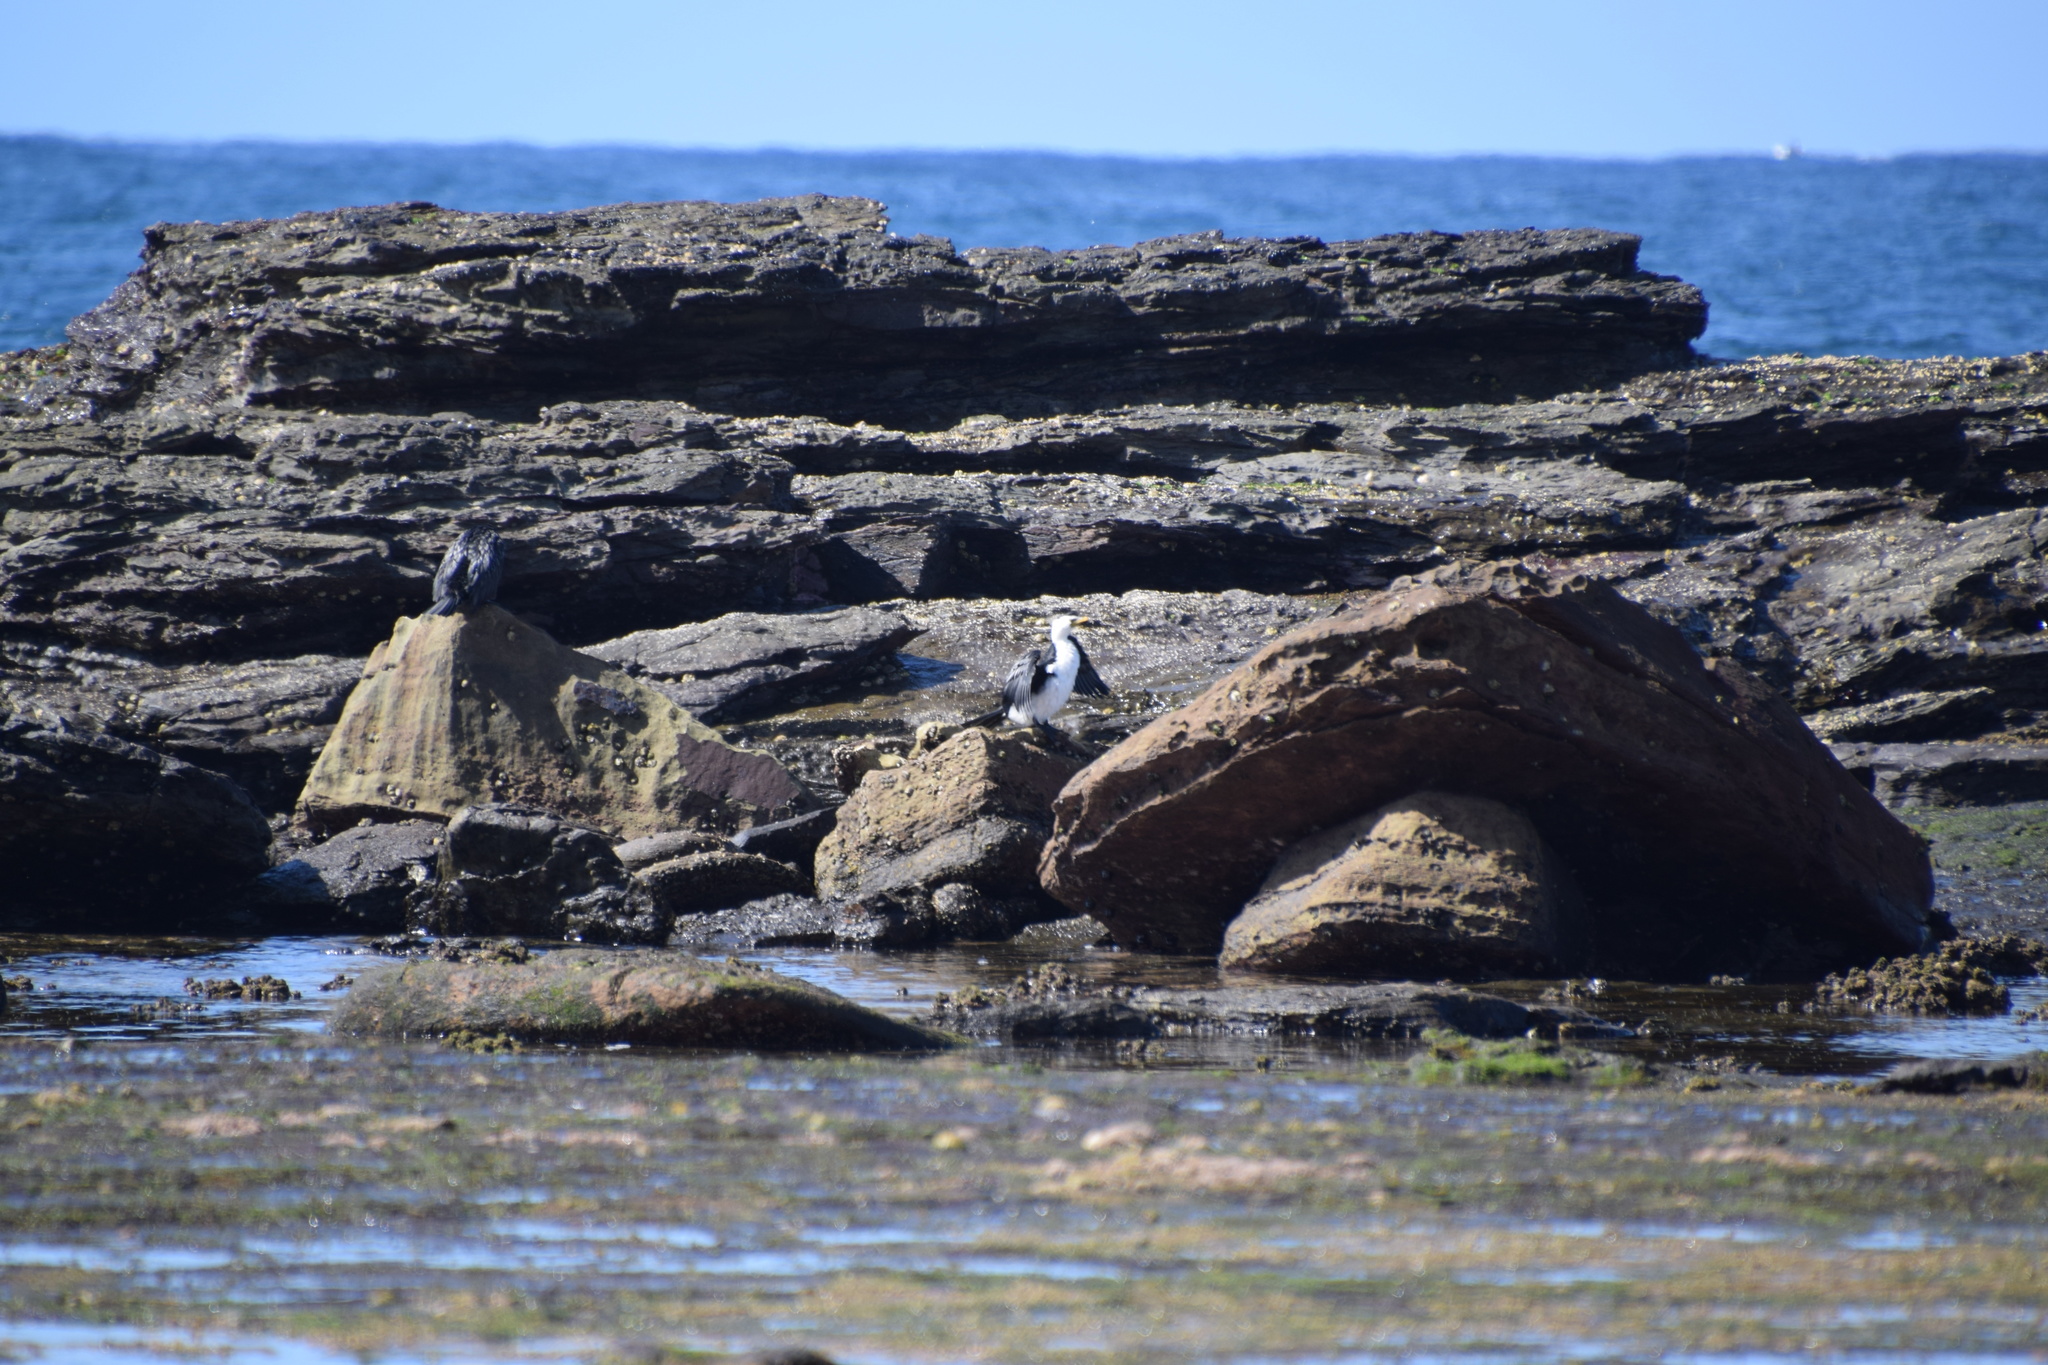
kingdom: Animalia
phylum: Chordata
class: Aves
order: Suliformes
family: Phalacrocoracidae
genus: Microcarbo
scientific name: Microcarbo melanoleucos
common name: Little pied cormorant
